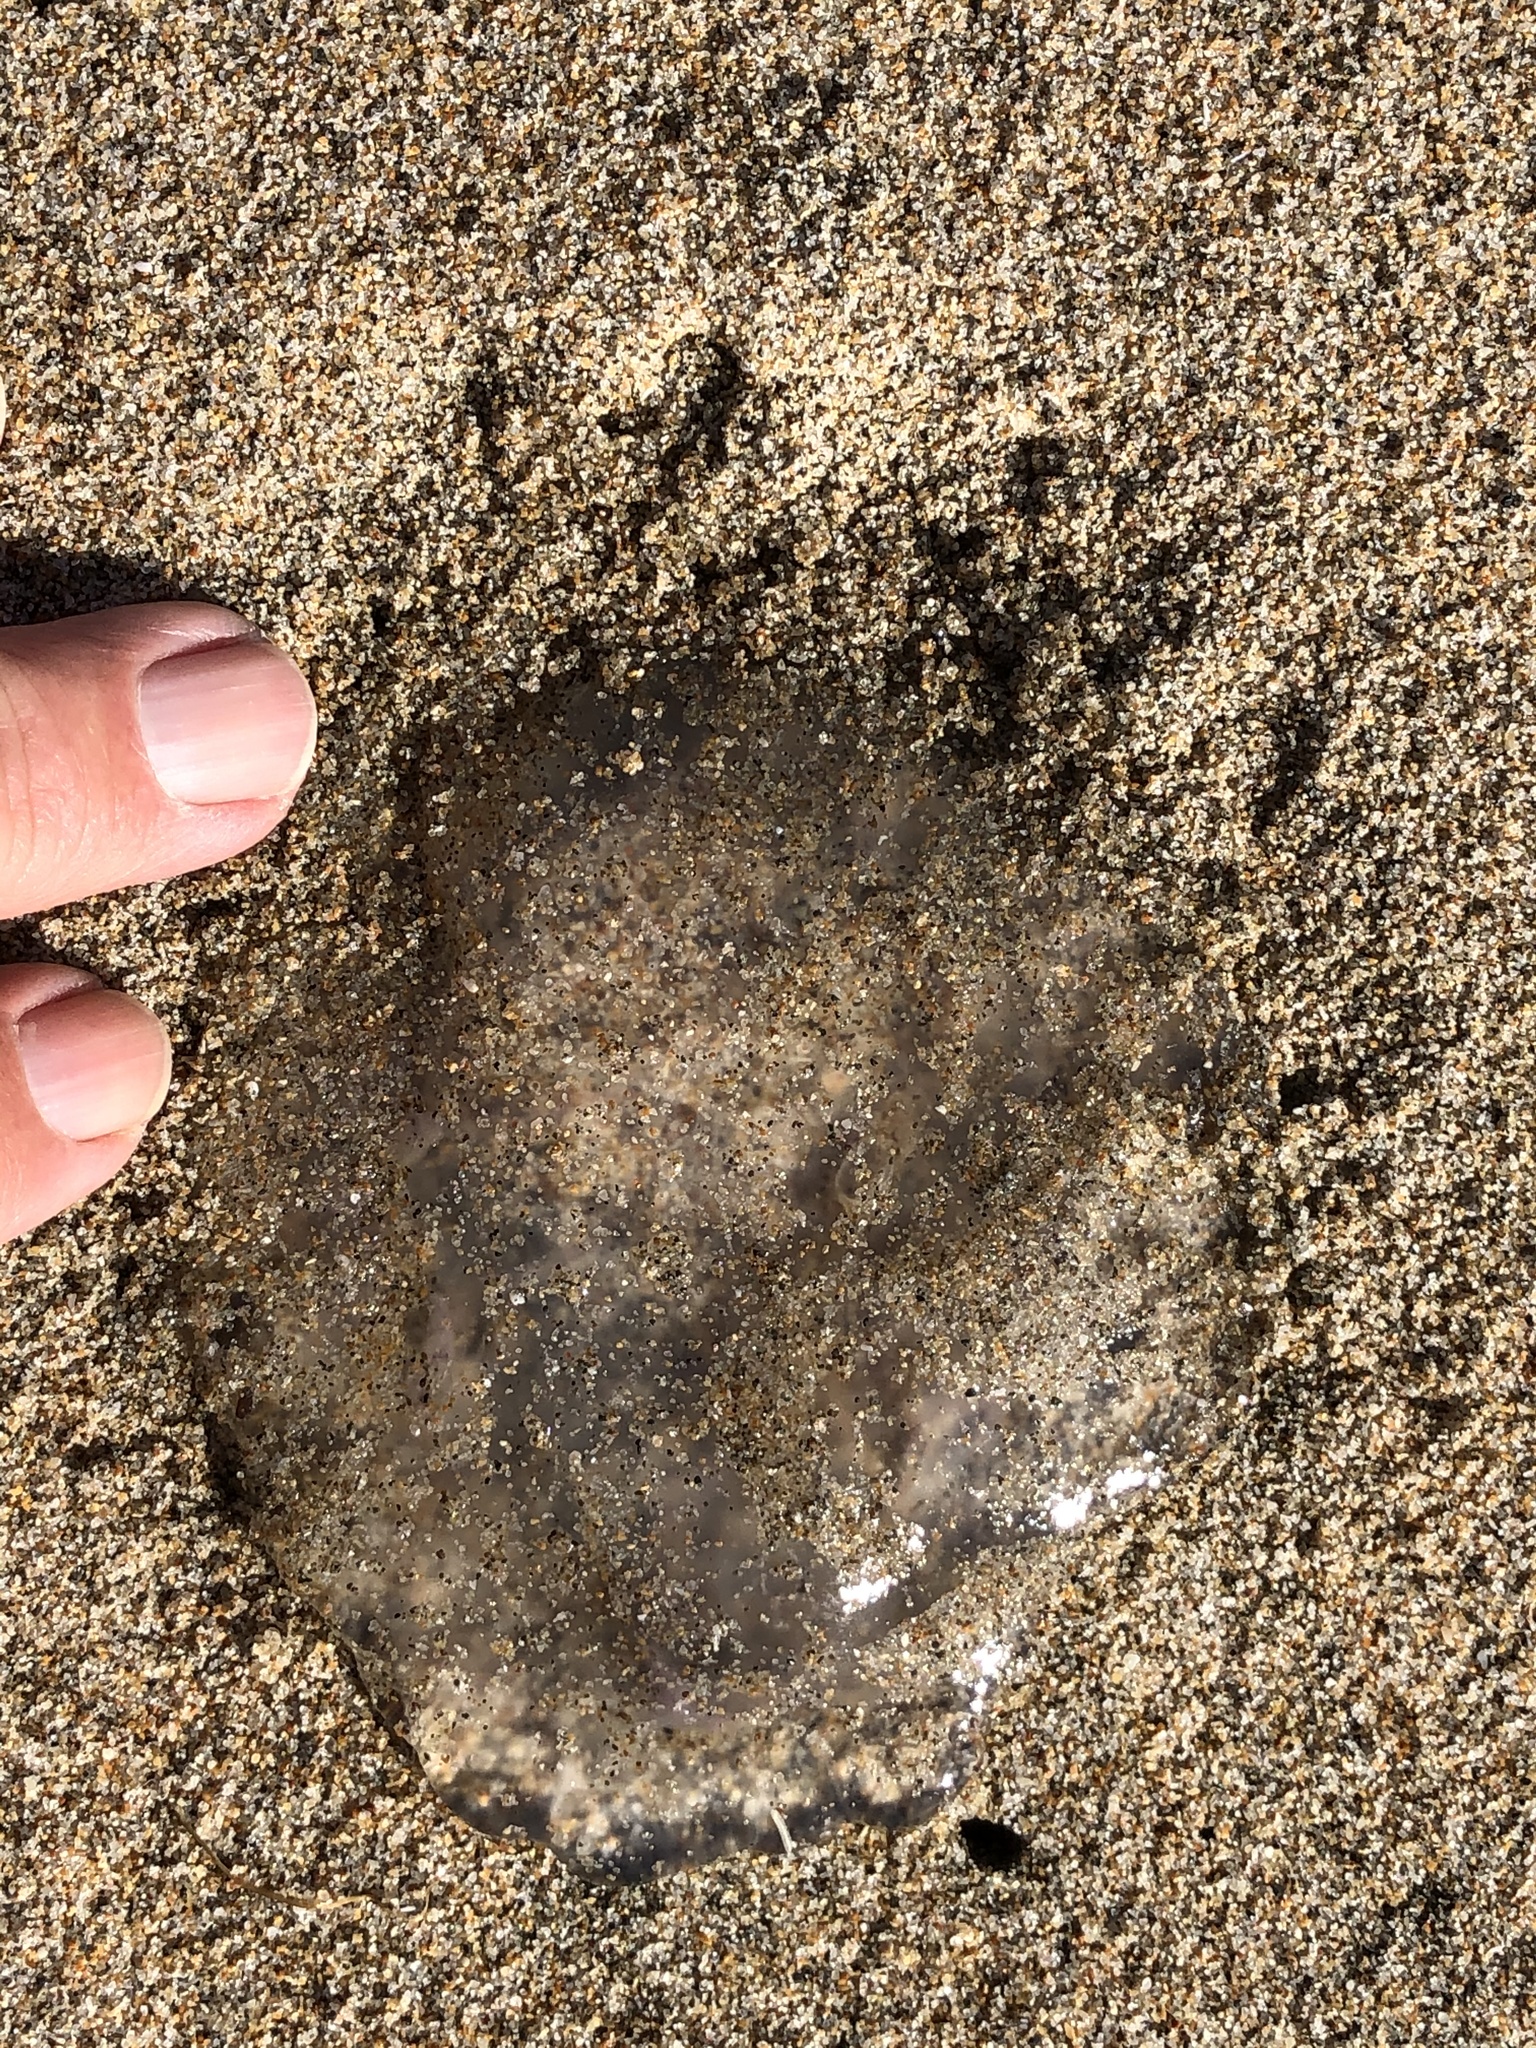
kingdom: Animalia
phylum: Cnidaria
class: Scyphozoa
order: Semaeostomeae
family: Pelagiidae
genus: Chrysaora
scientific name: Chrysaora fuscescens
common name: Sea nettle
